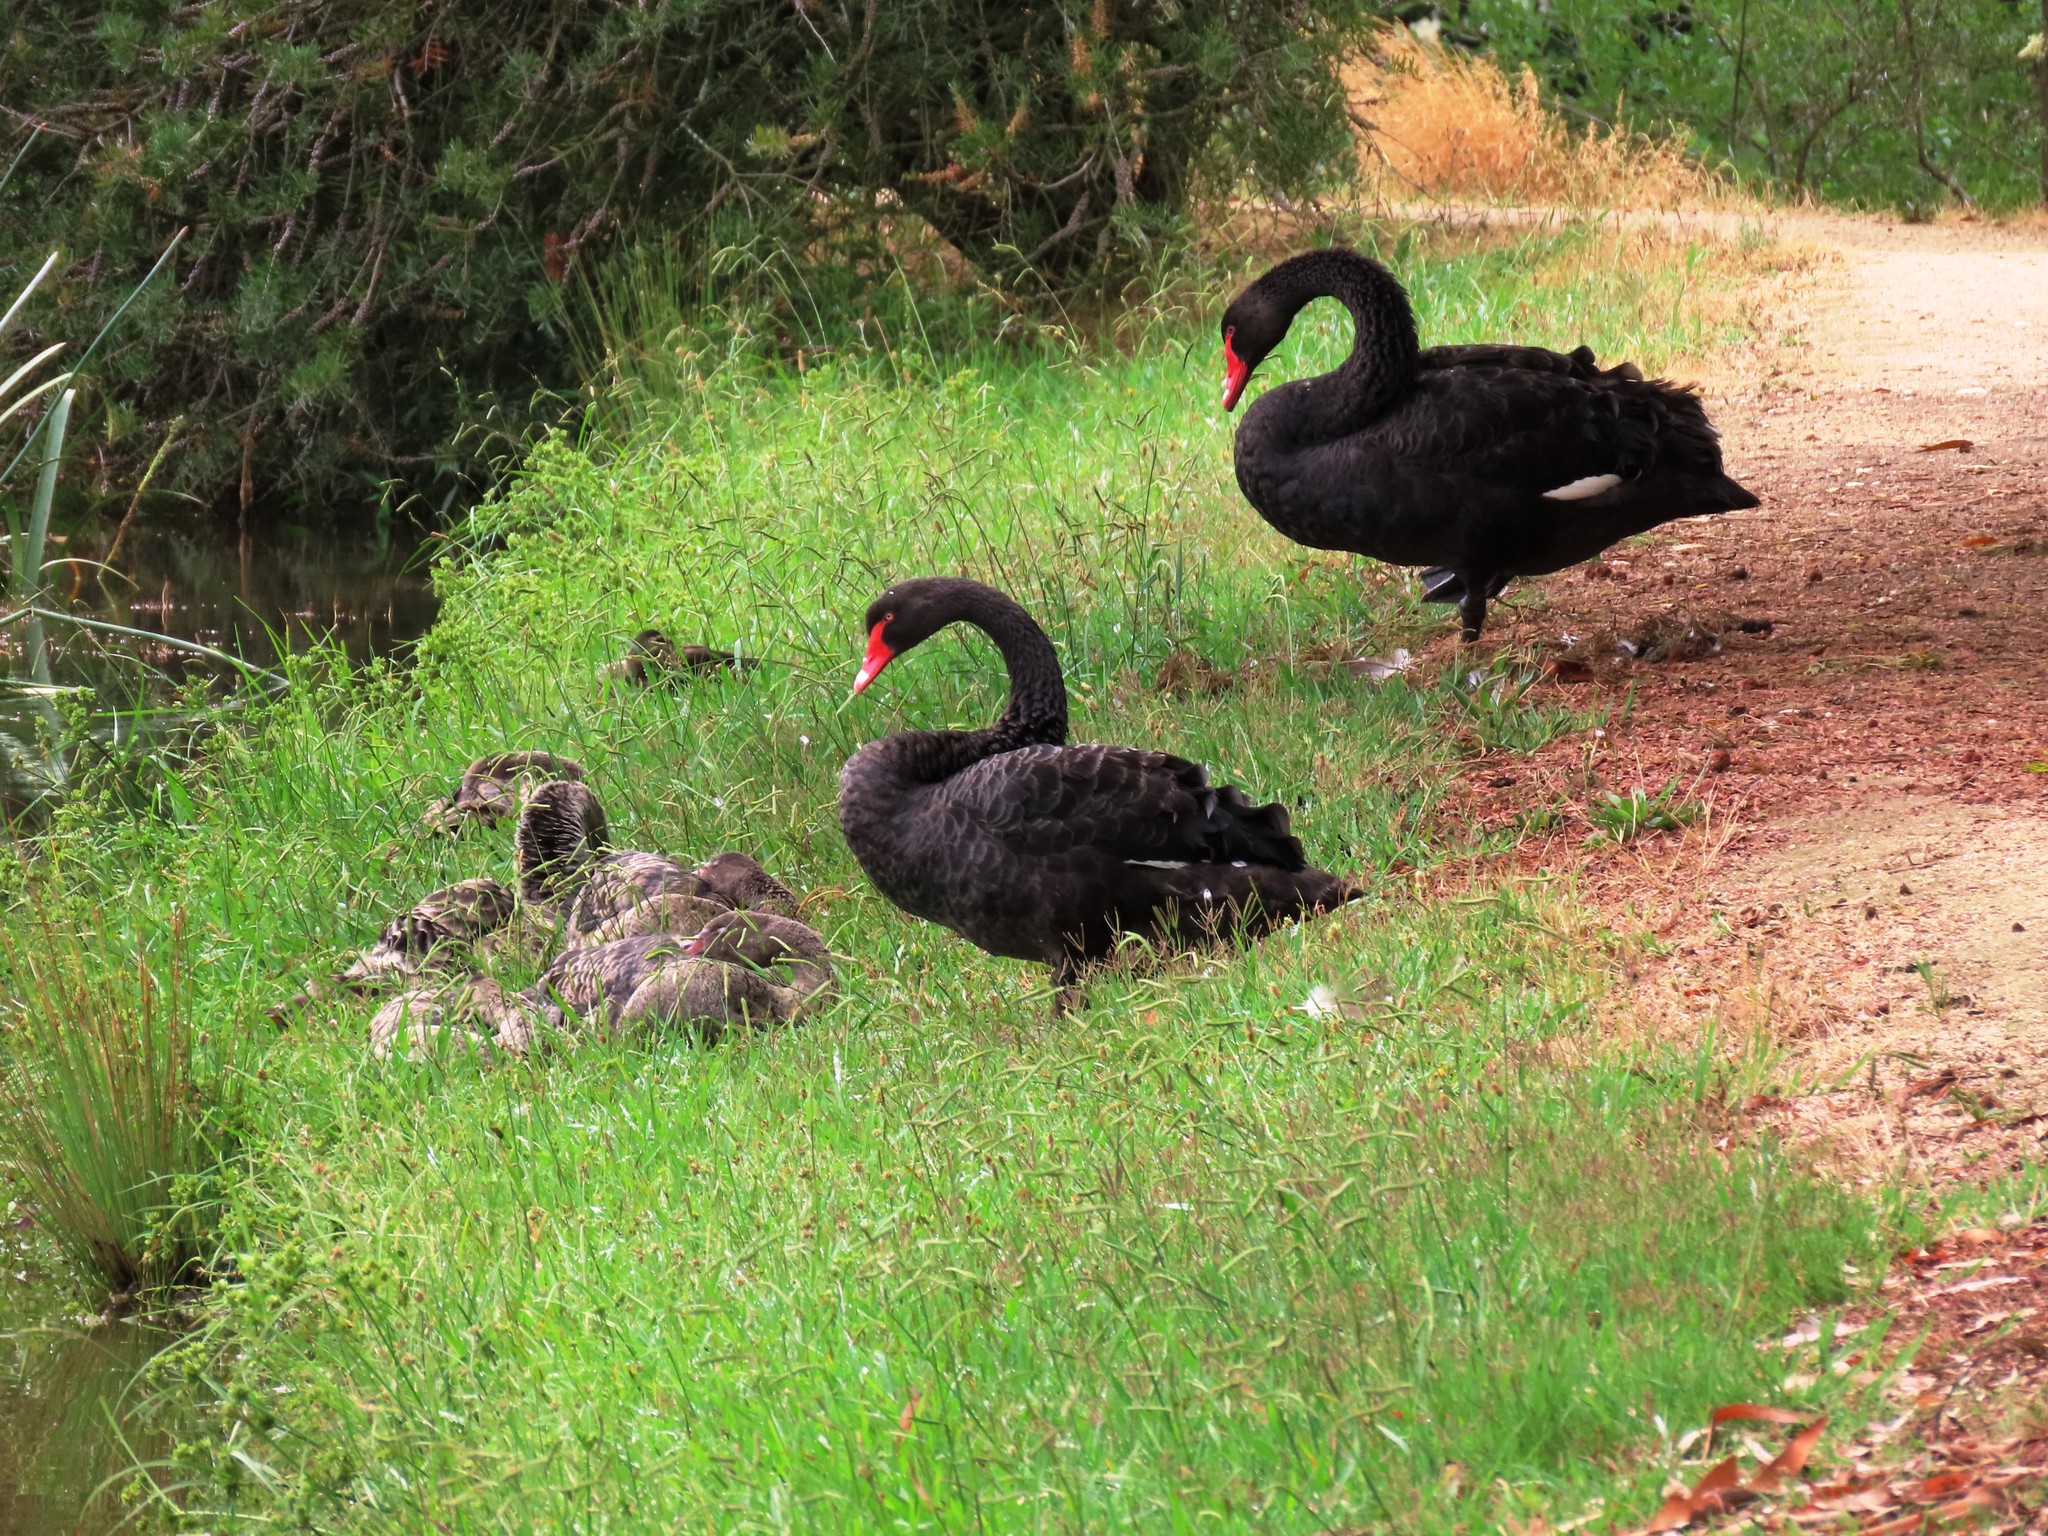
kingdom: Animalia
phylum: Chordata
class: Aves
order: Anseriformes
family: Anatidae
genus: Cygnus
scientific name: Cygnus atratus
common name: Black swan
